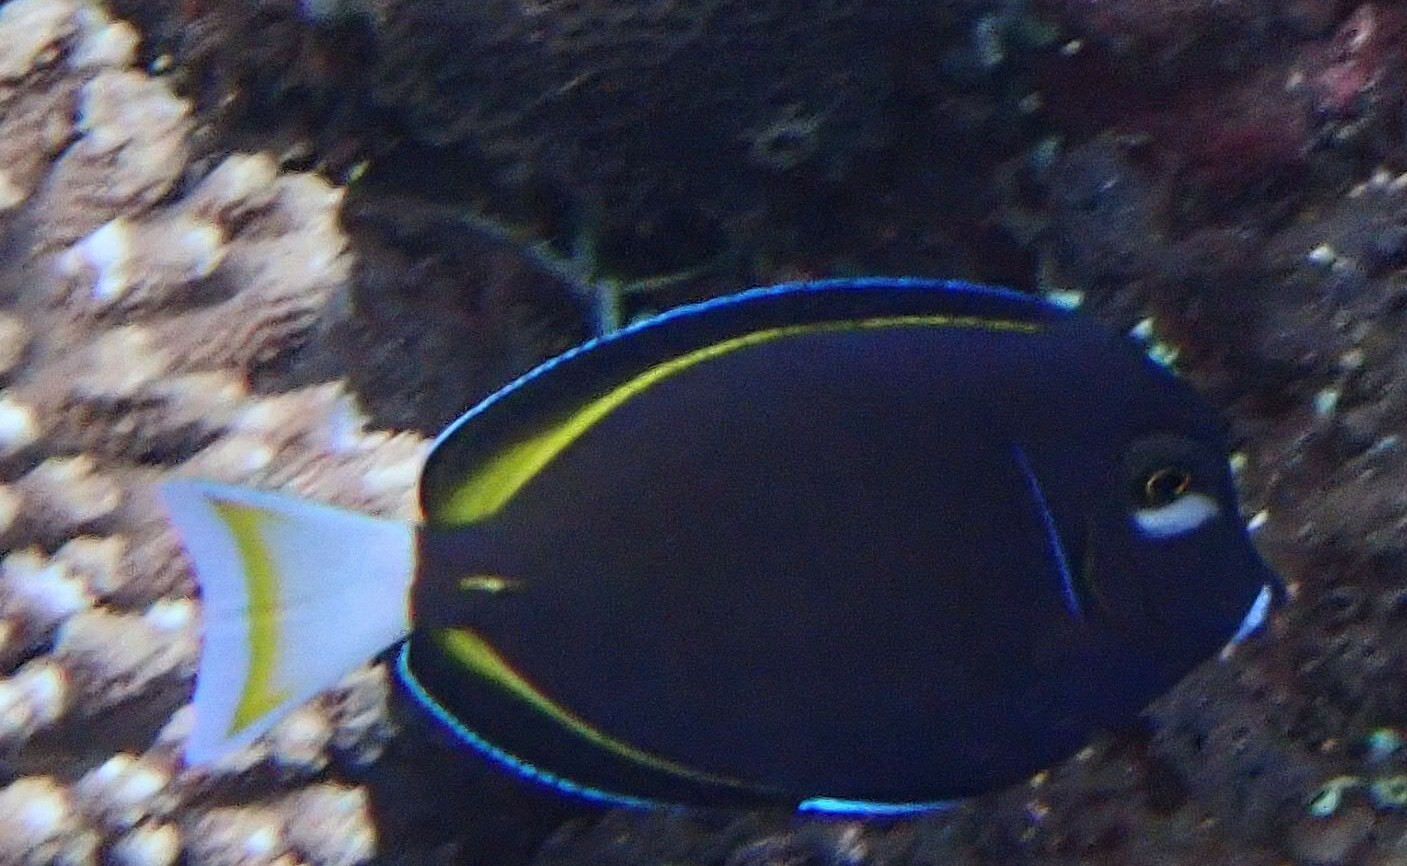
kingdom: Animalia
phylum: Chordata
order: Perciformes
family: Acanthuridae
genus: Acanthurus
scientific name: Acanthurus nigricans
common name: Whitecheek surgeonfish
